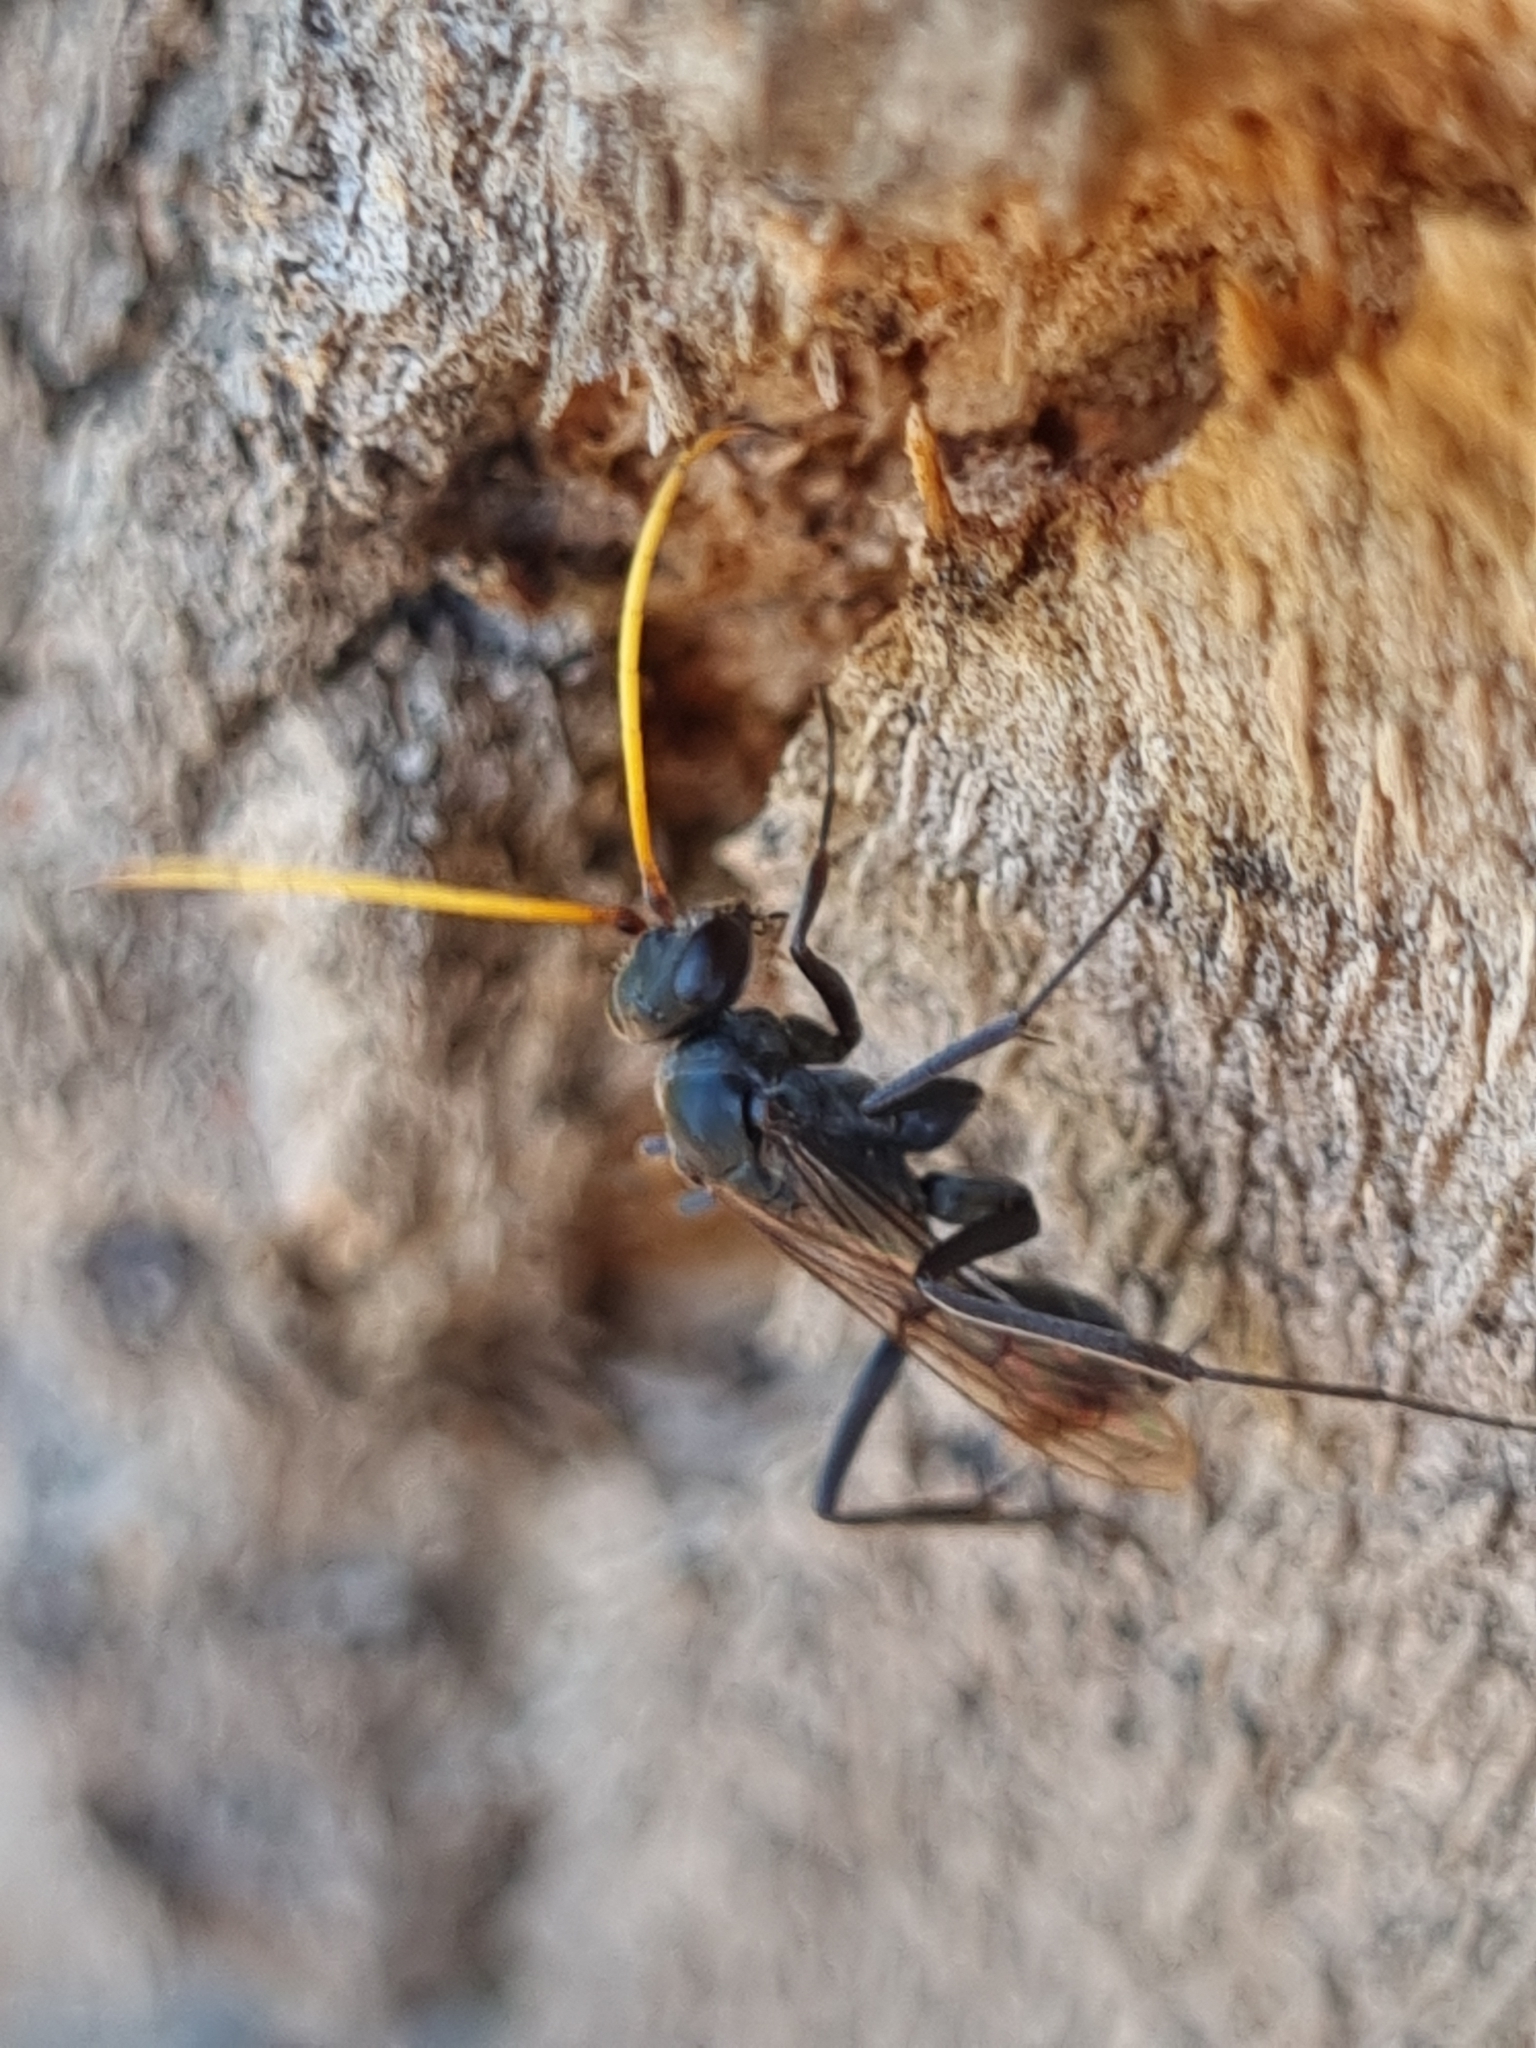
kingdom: Animalia
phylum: Arthropoda
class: Insecta
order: Hymenoptera
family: Pompilidae
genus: Fabriogenia
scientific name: Fabriogenia
